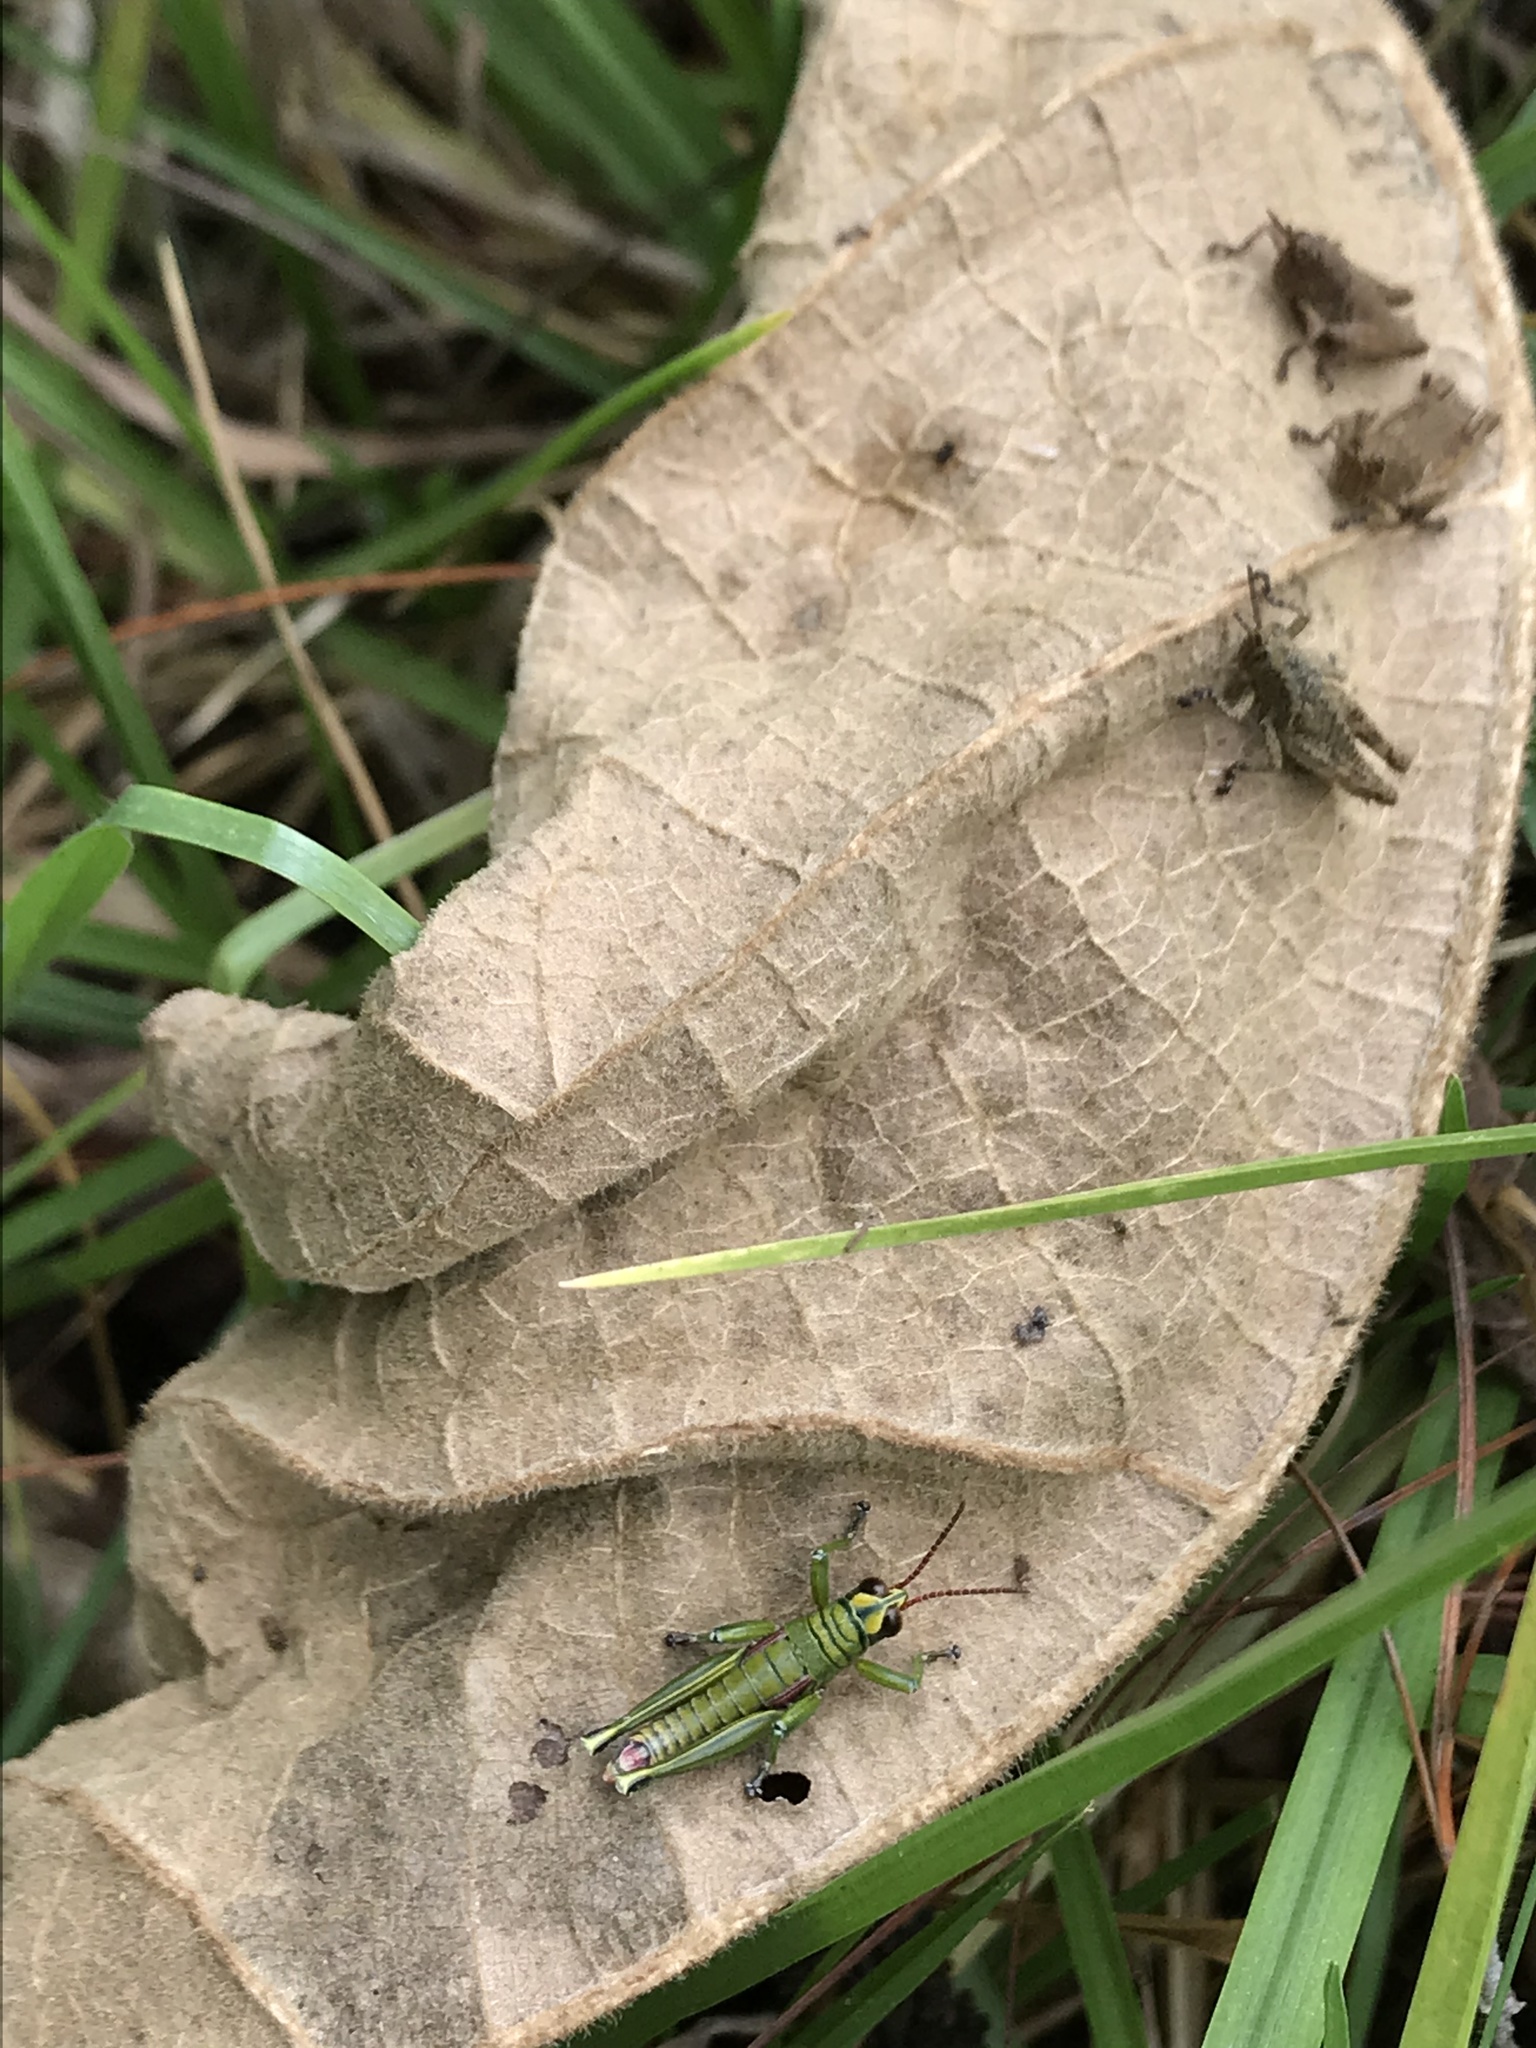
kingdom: Animalia
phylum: Arthropoda
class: Insecta
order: Orthoptera
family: Acrididae
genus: Agesander
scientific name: Agesander ruficornis
